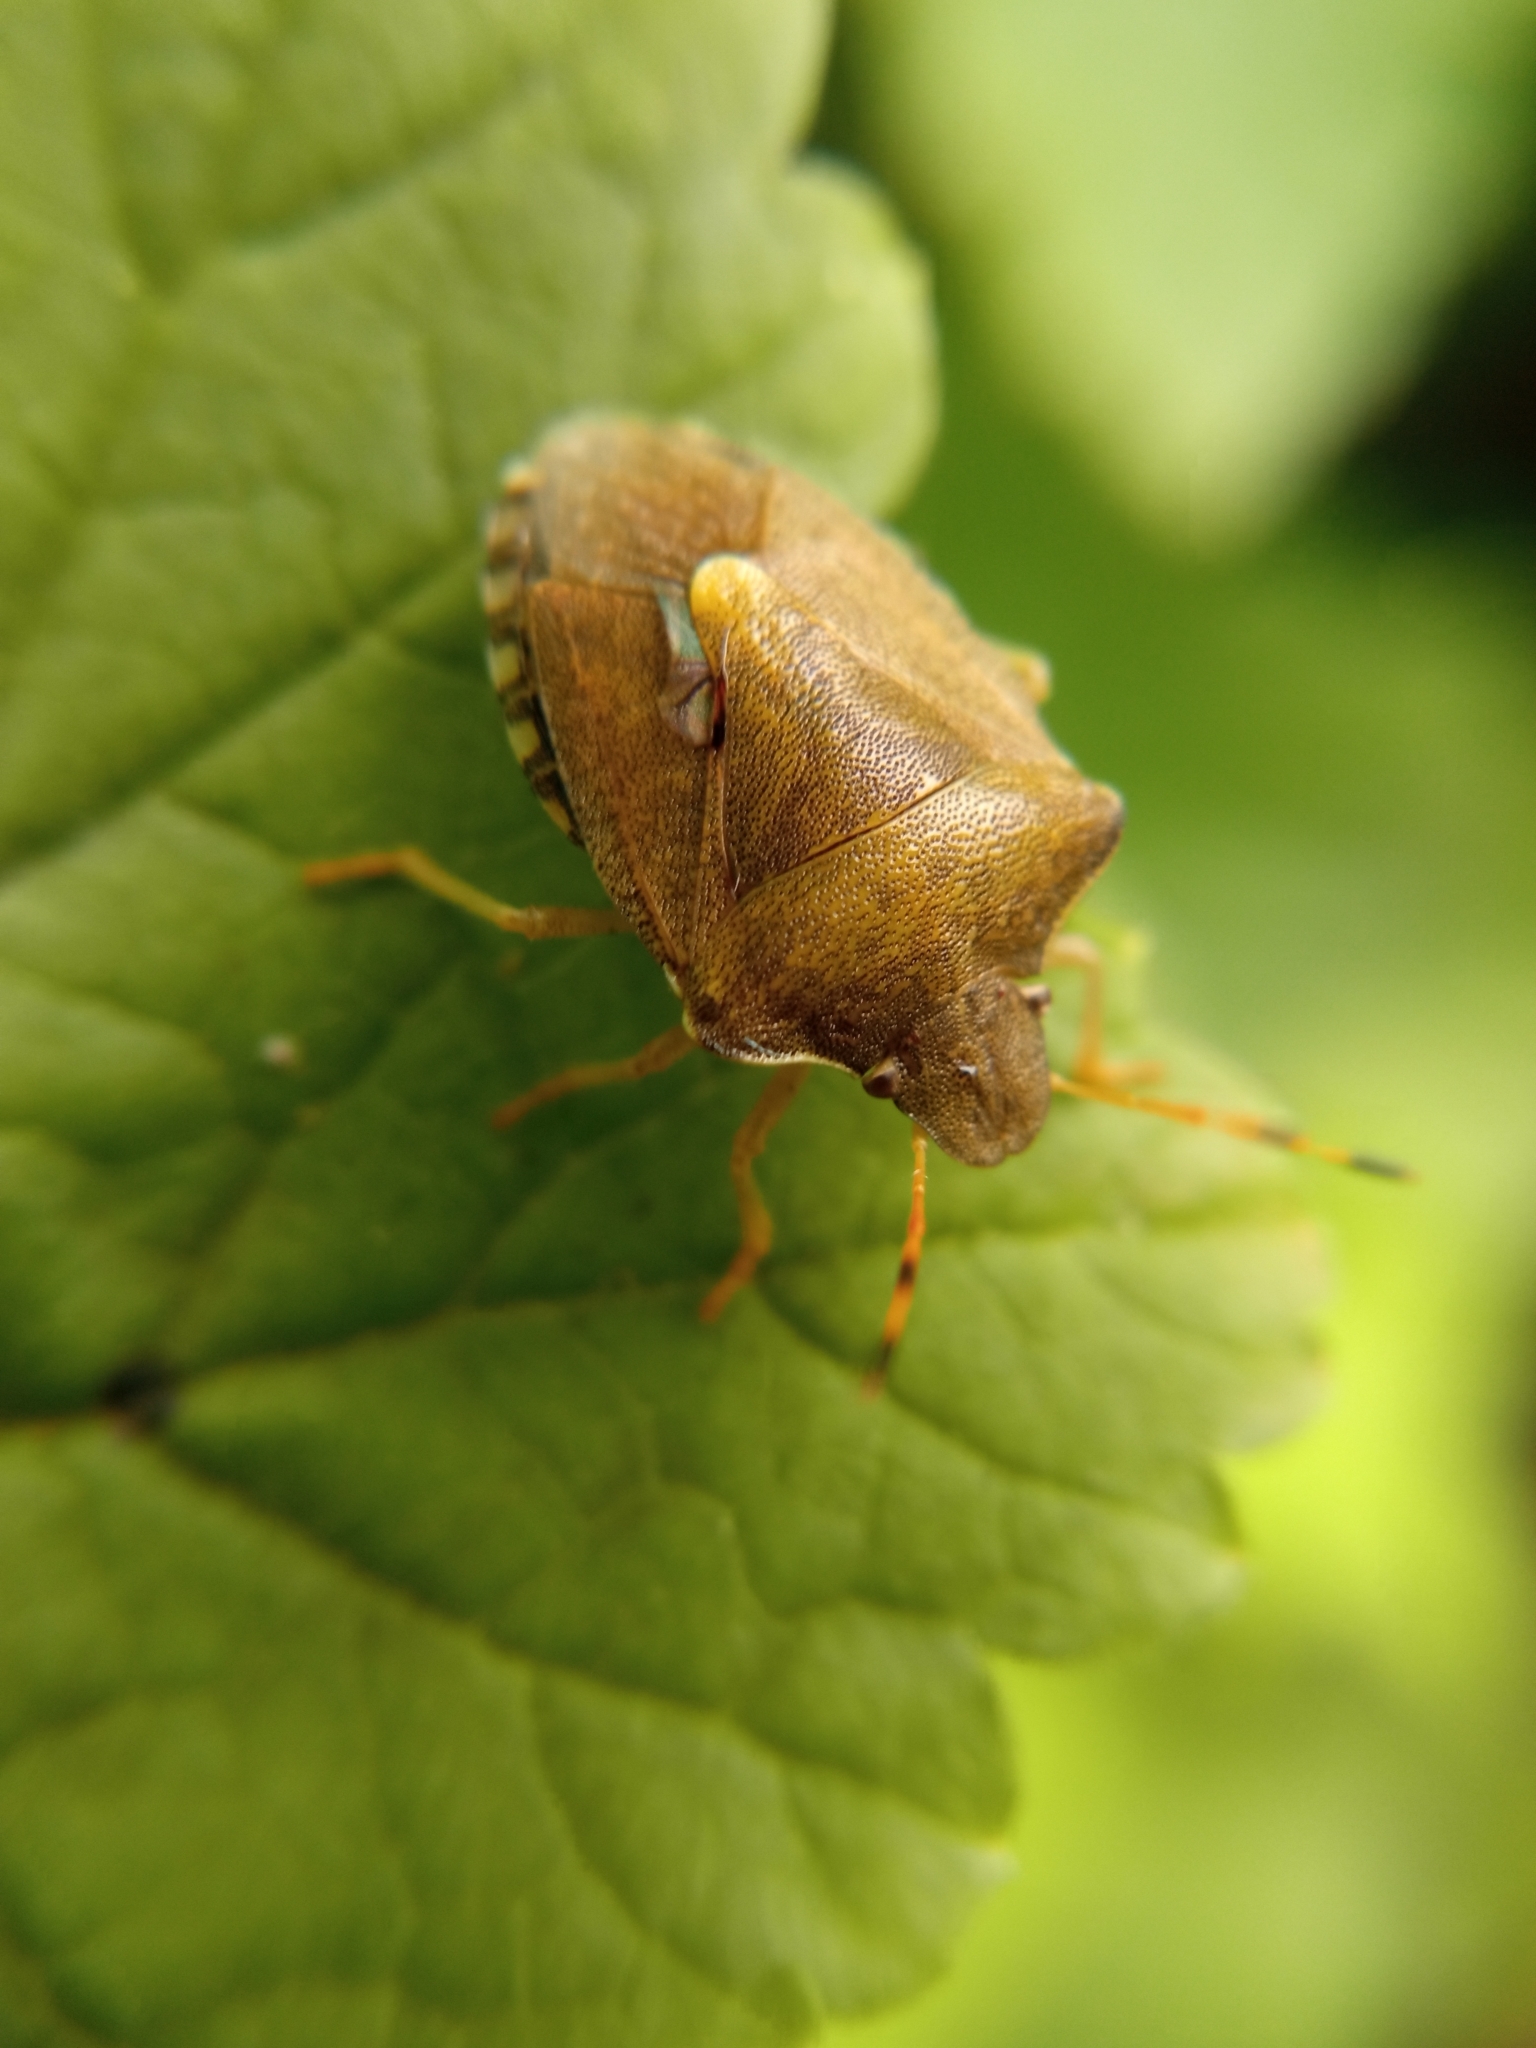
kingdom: Animalia
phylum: Arthropoda
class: Insecta
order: Hemiptera
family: Pentatomidae
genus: Holcostethus
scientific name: Holcostethus strictus
